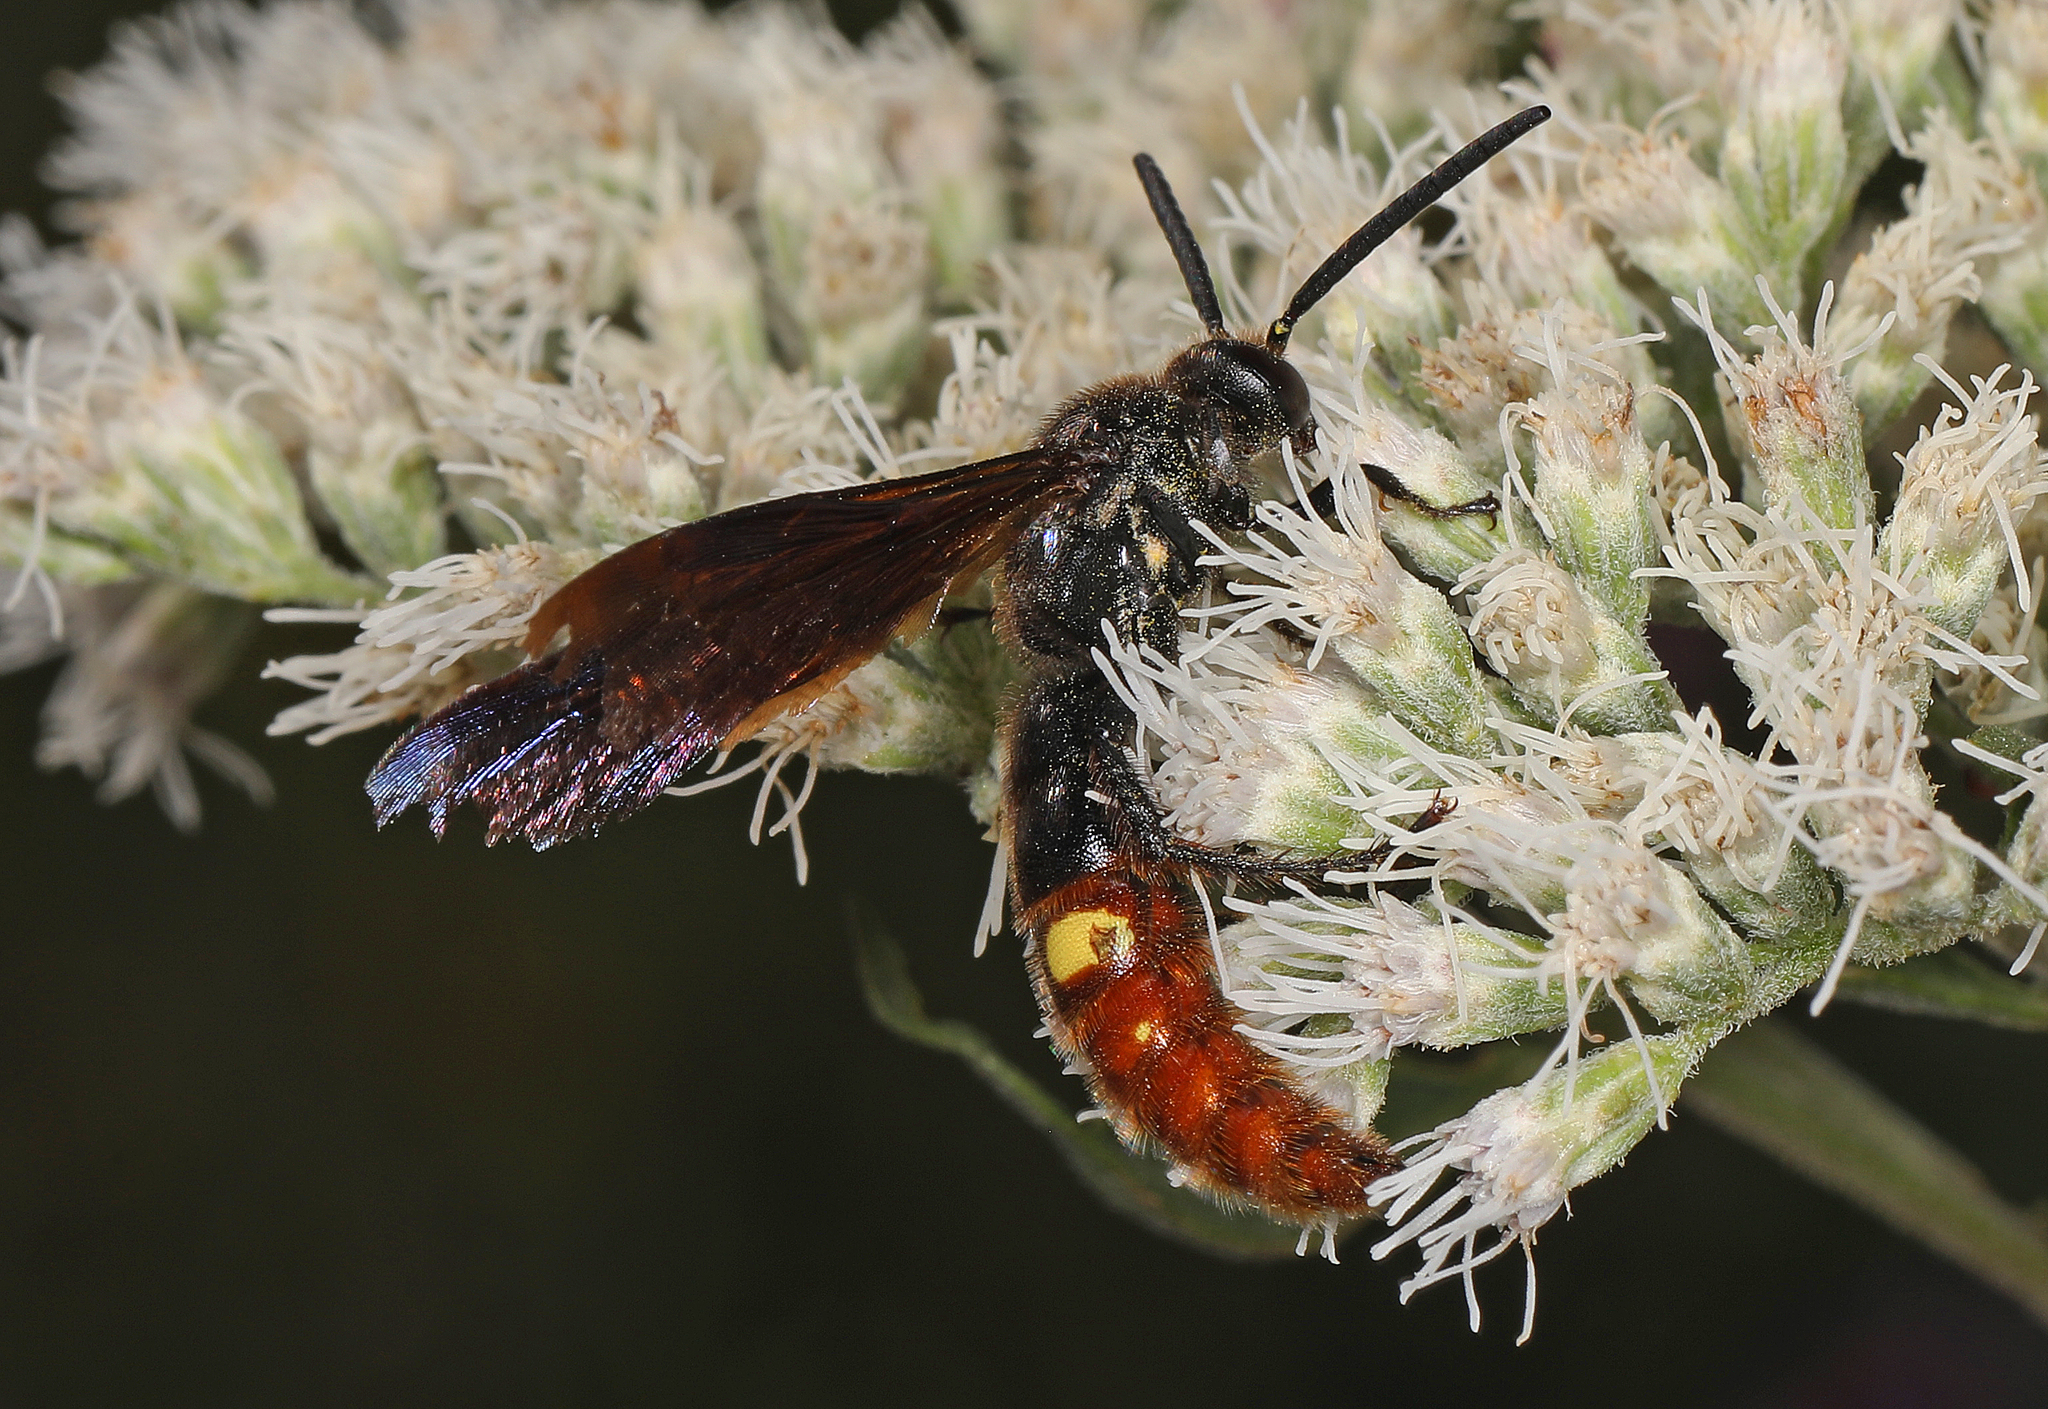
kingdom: Animalia
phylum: Arthropoda
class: Insecta
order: Hymenoptera
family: Scoliidae
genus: Scolia
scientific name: Scolia dubia
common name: Blue-winged scoliid wasp
